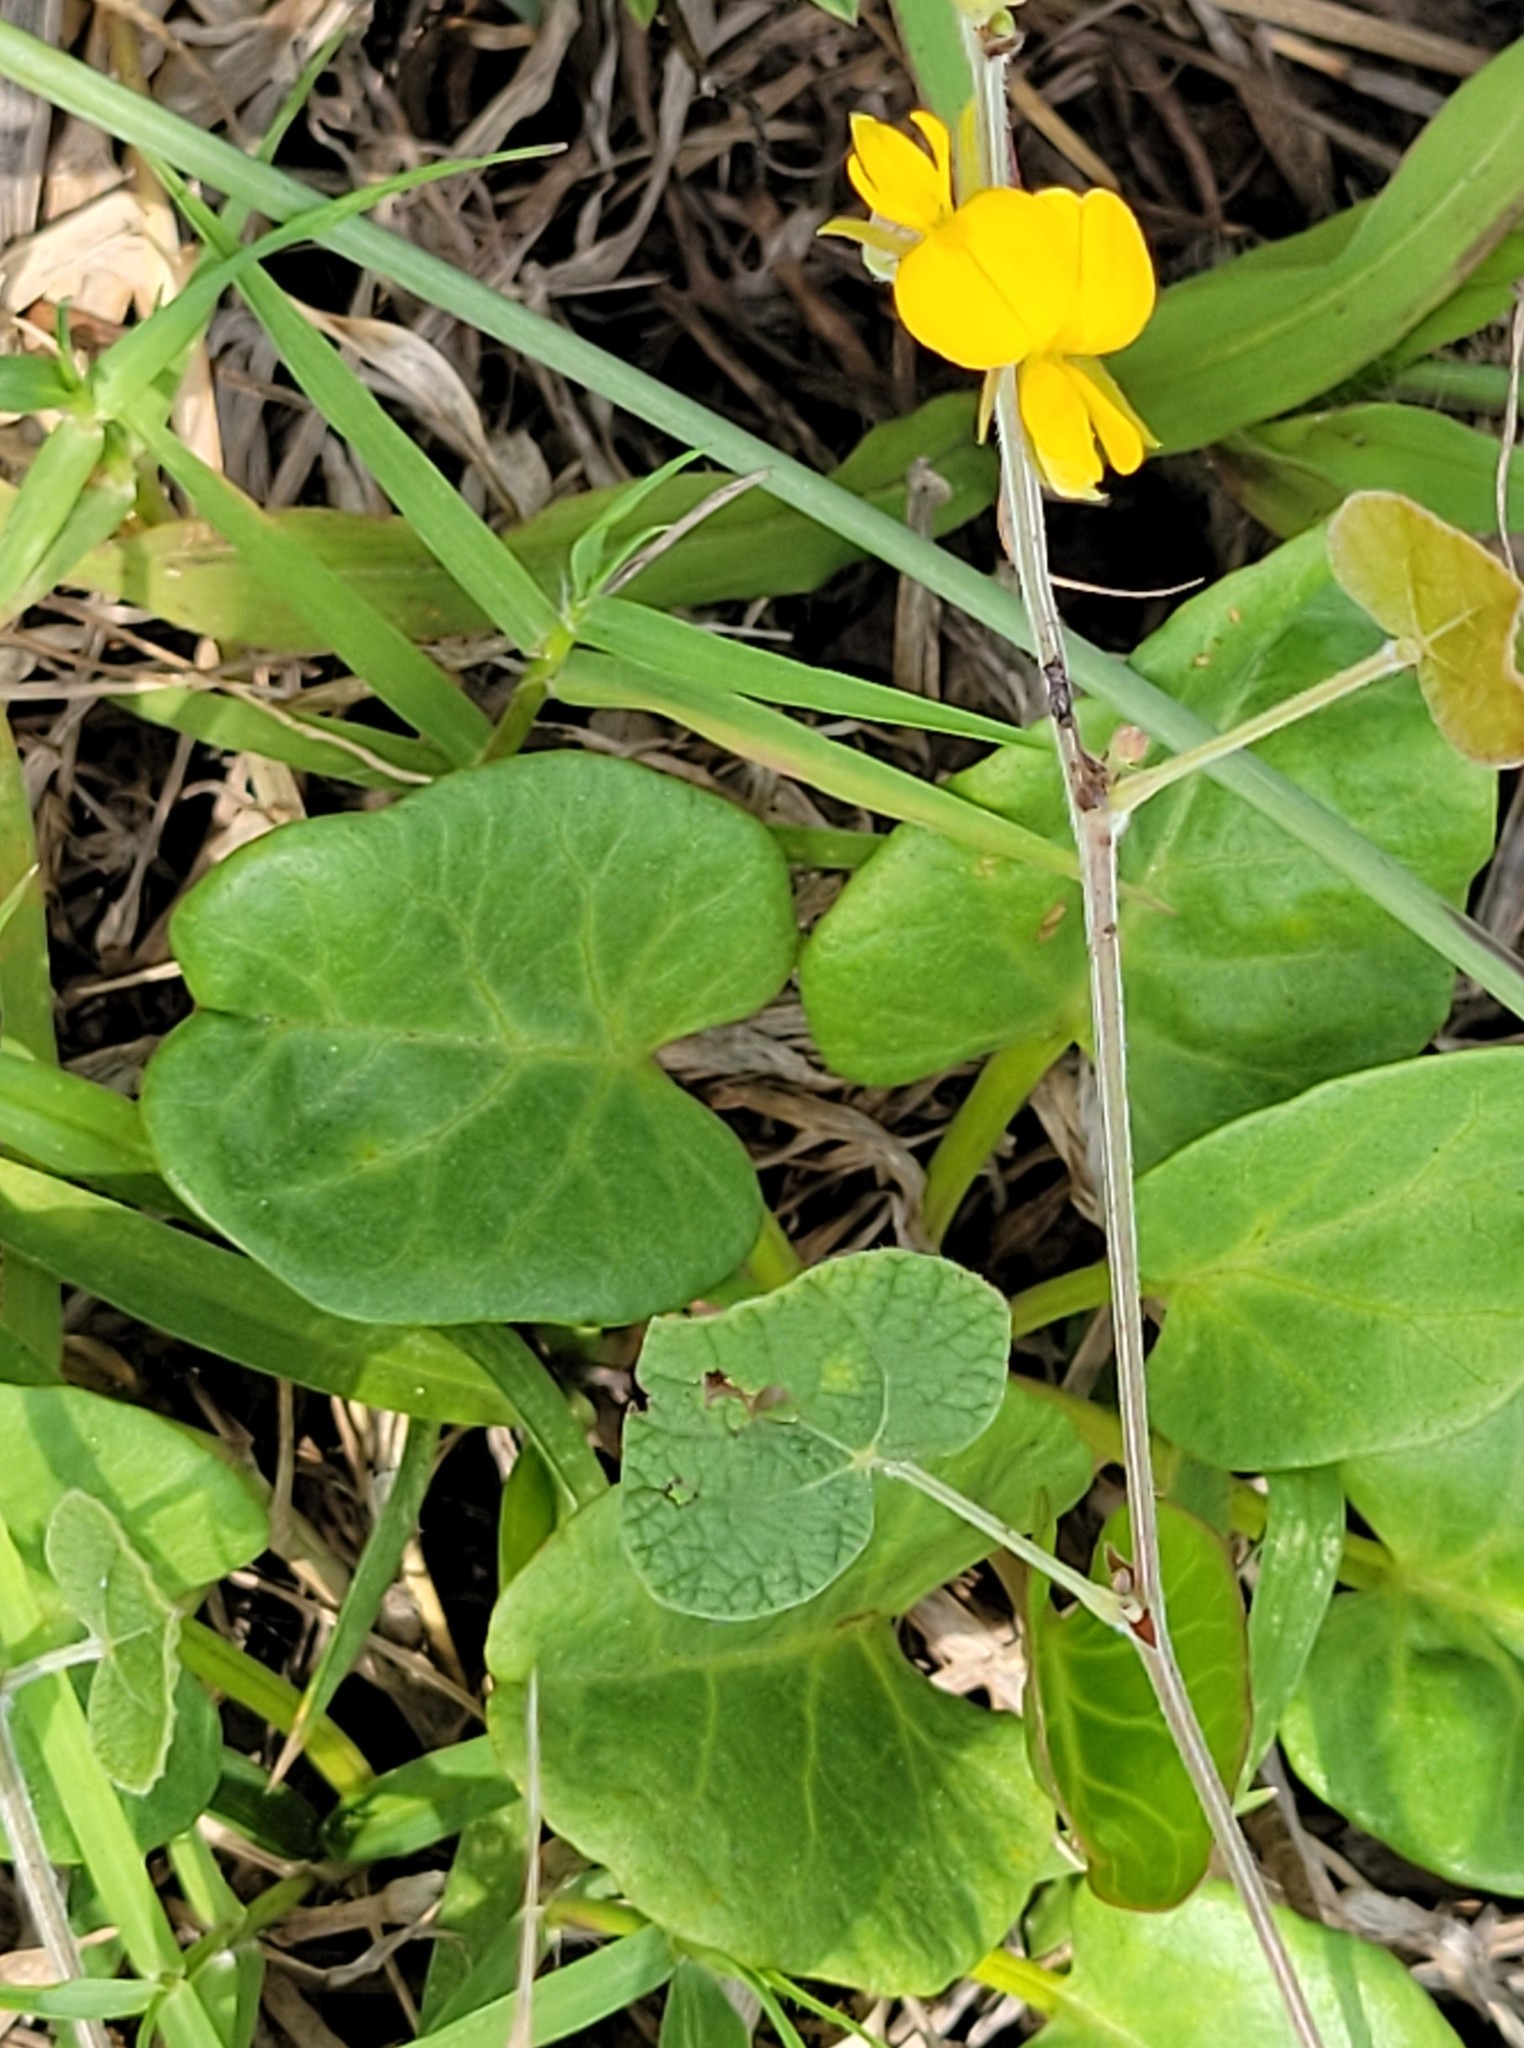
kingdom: Plantae
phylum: Tracheophyta
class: Magnoliopsida
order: Fabales
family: Fabaceae
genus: Rhynchosia
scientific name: Rhynchosia americana
